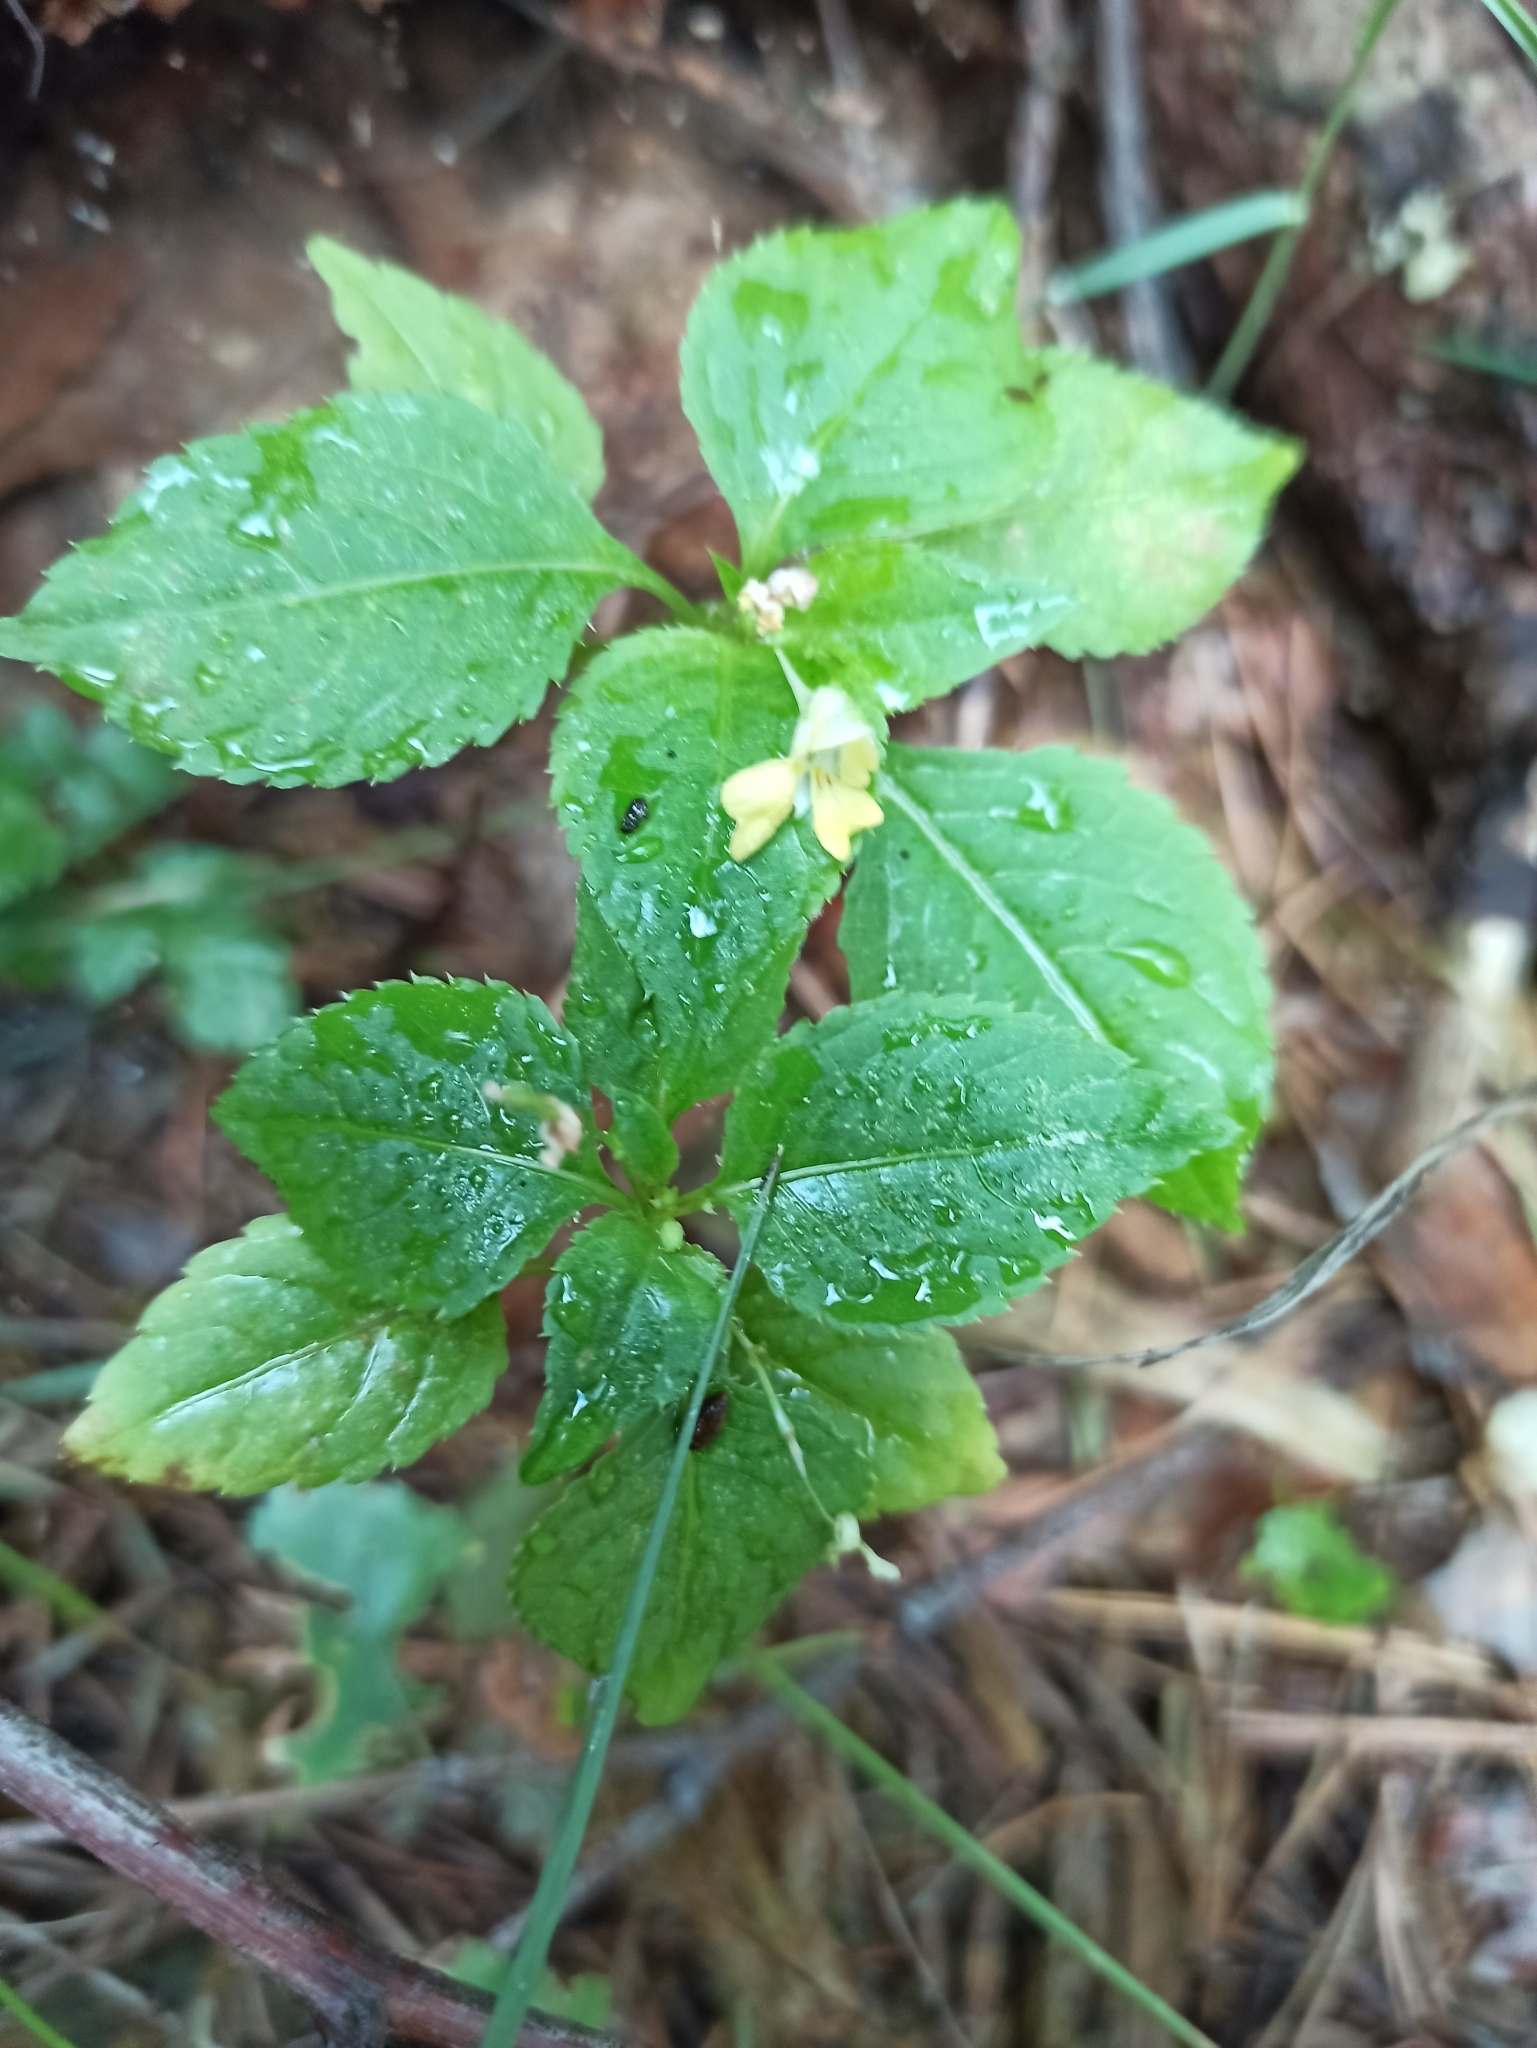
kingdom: Plantae
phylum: Tracheophyta
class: Magnoliopsida
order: Ericales
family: Balsaminaceae
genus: Impatiens
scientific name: Impatiens parviflora
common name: Small balsam
